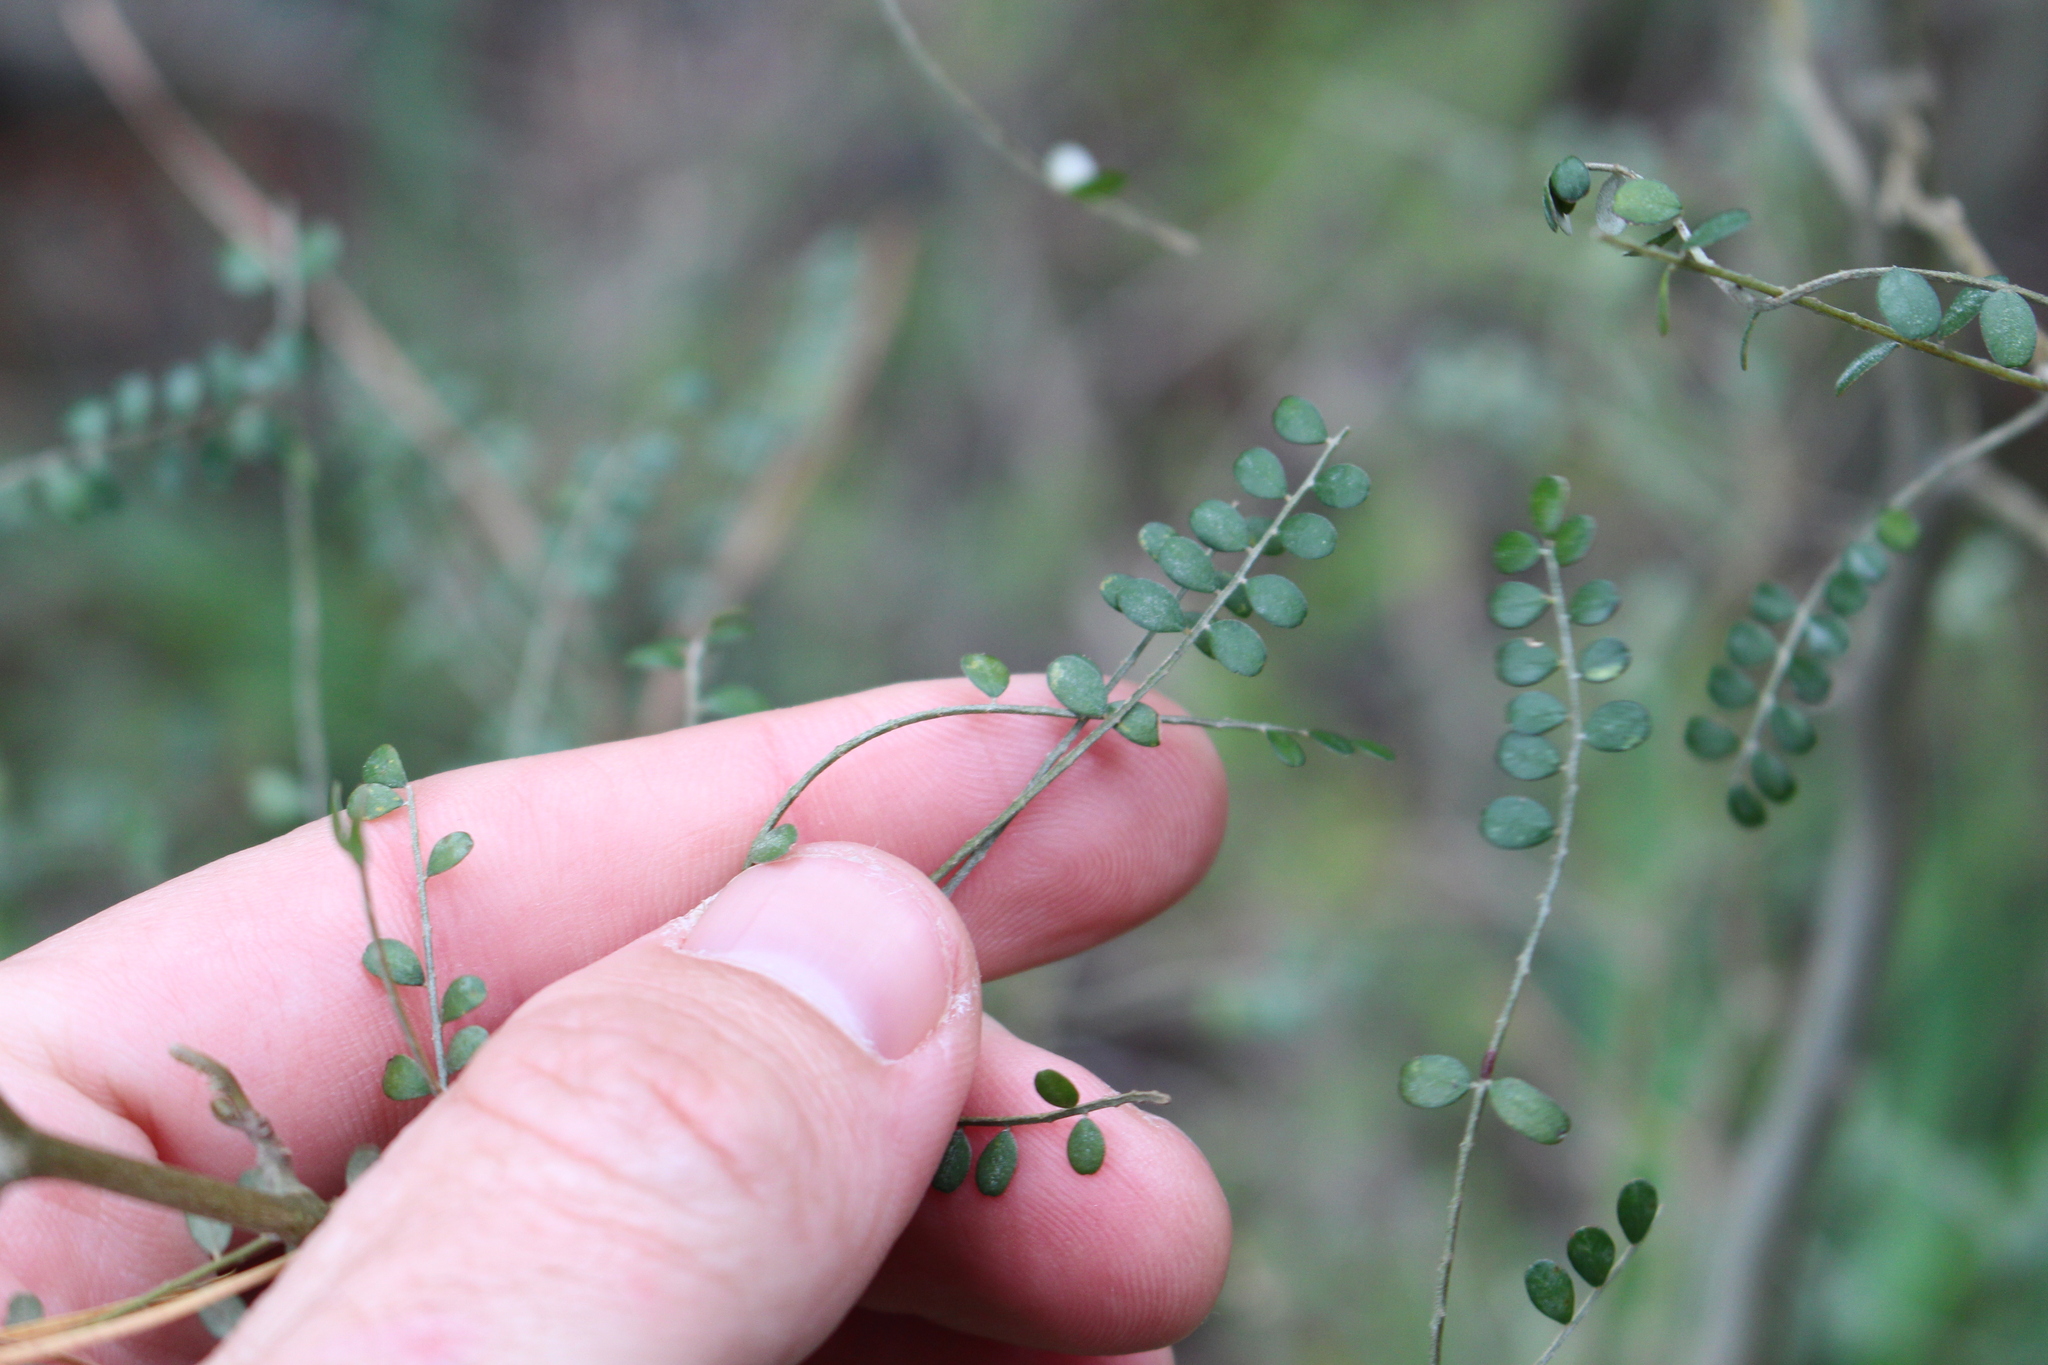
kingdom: Plantae
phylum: Tracheophyta
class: Magnoliopsida
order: Fabales
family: Fabaceae
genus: Sophora
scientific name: Sophora microphylla
